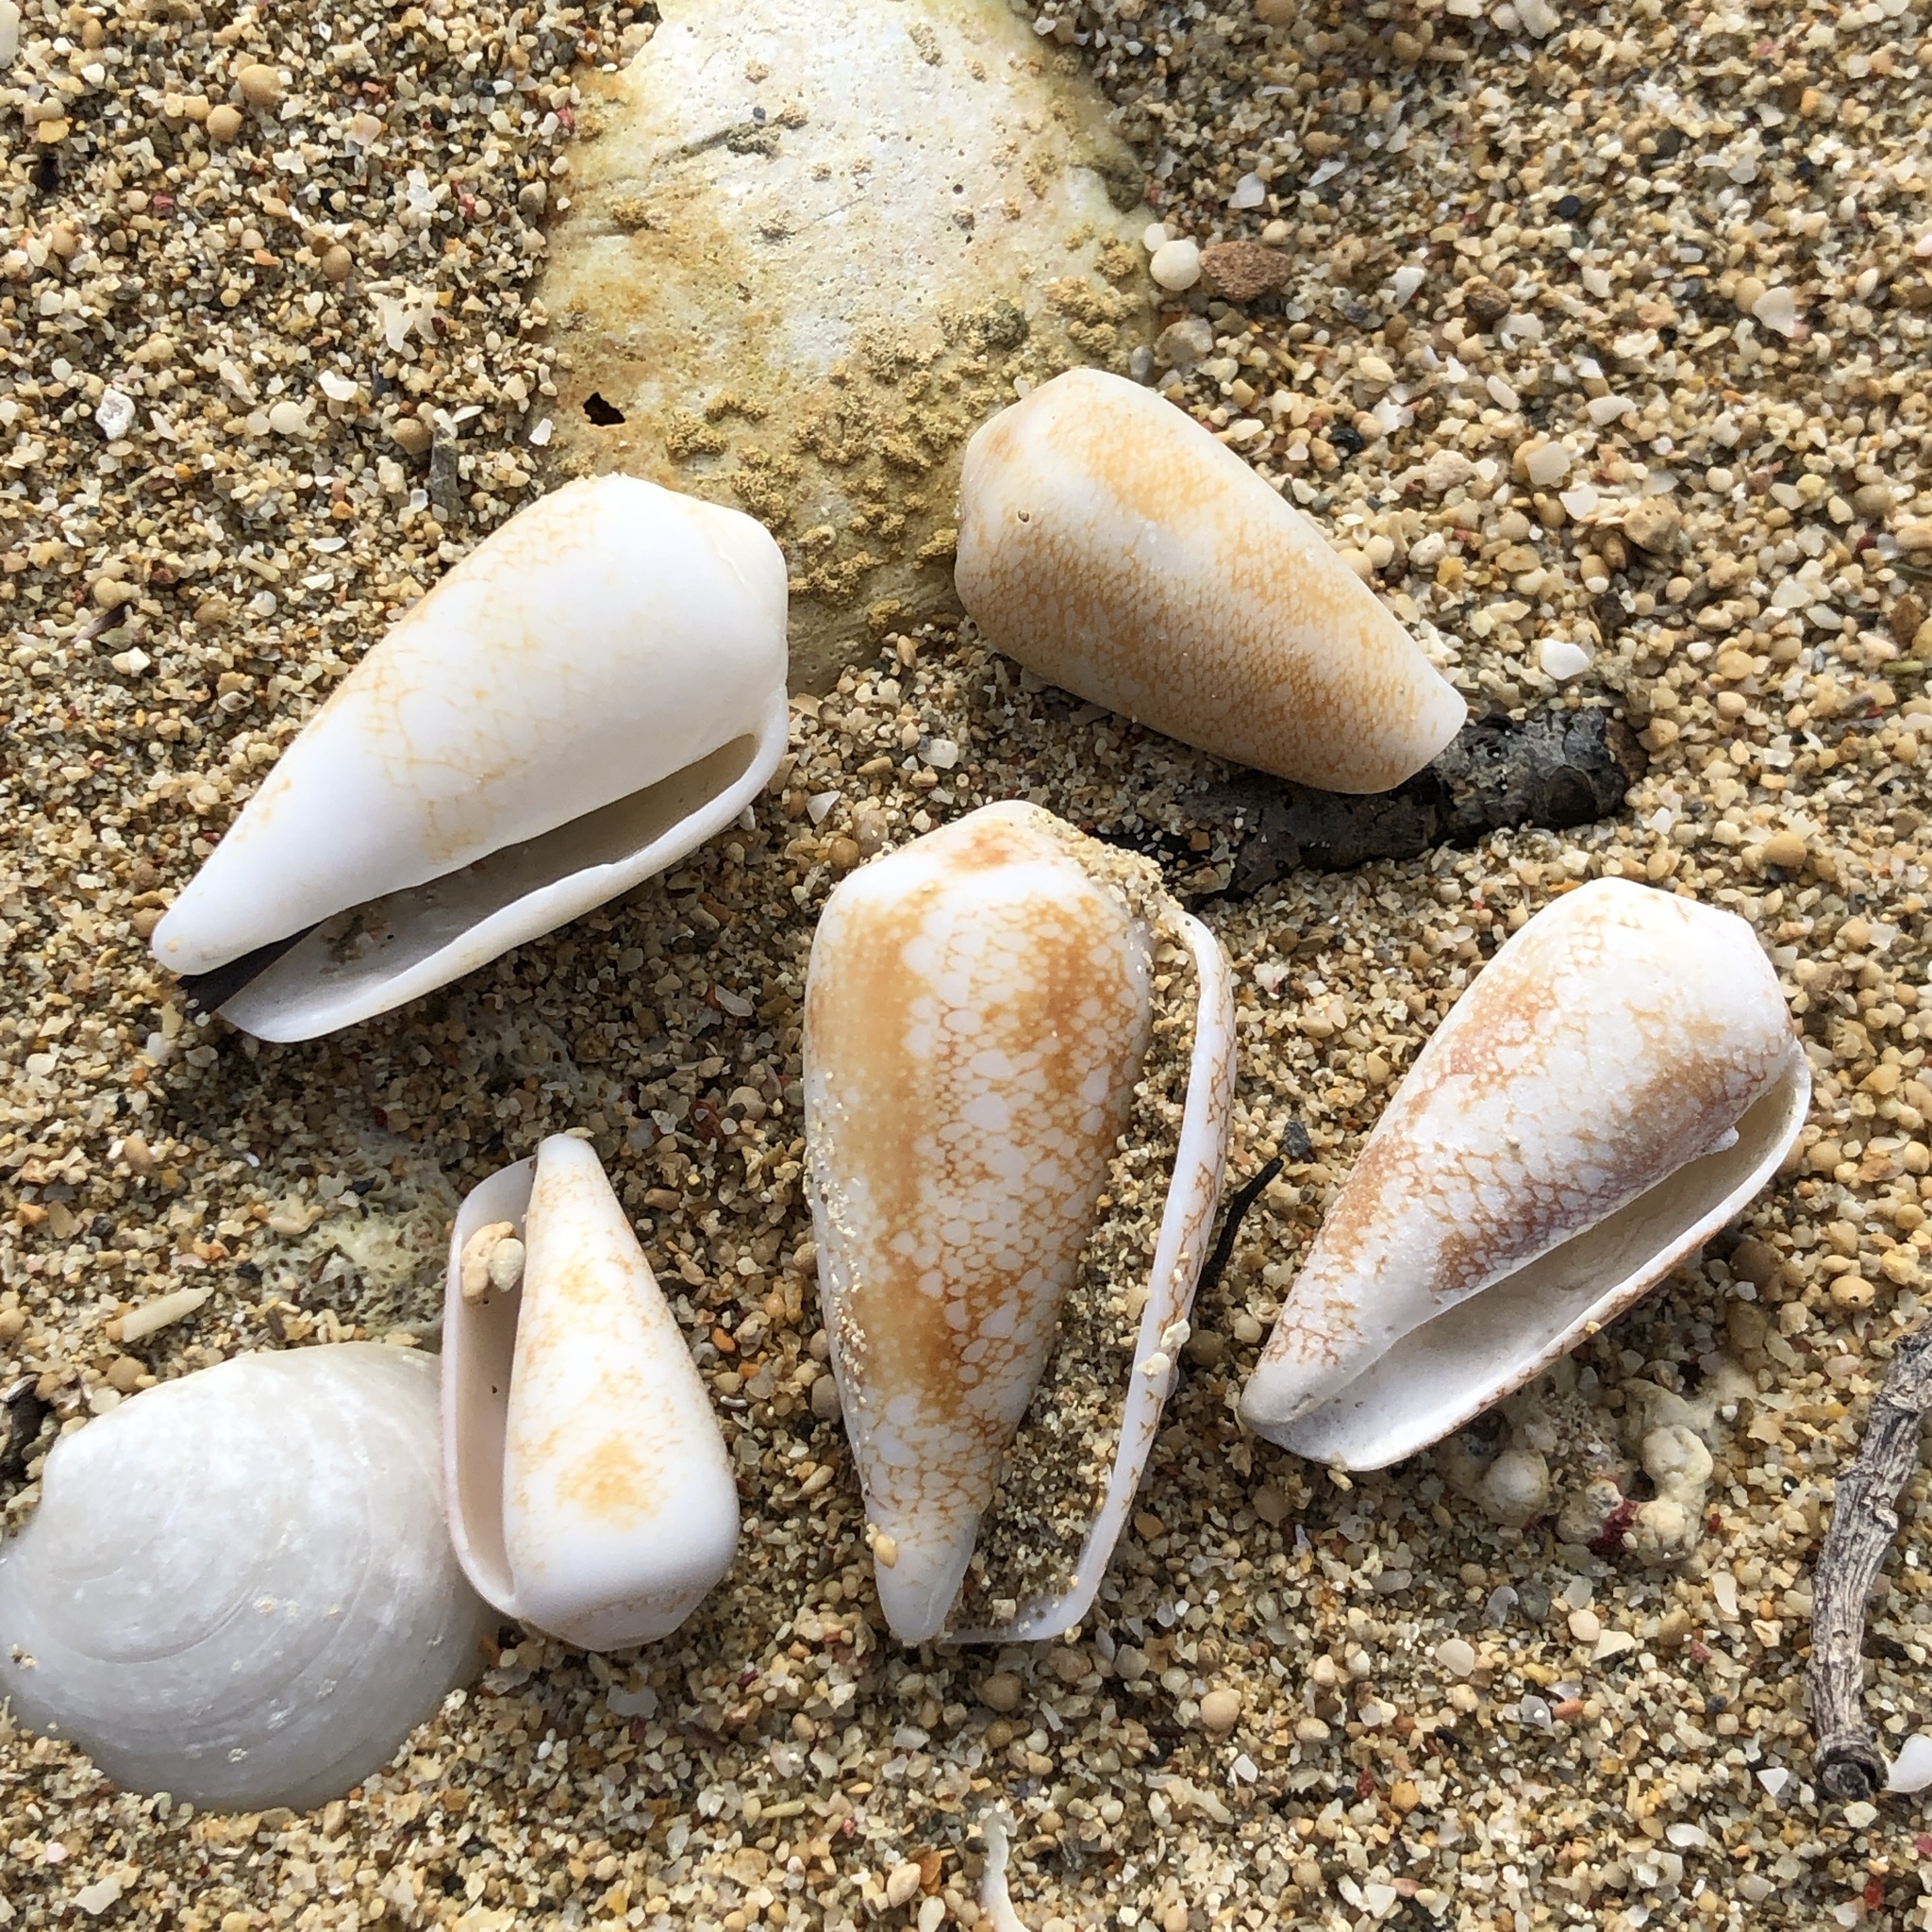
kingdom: Animalia
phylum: Mollusca
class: Gastropoda
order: Neogastropoda
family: Conidae
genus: Conus
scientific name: Conus omaria
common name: Omaria cone
